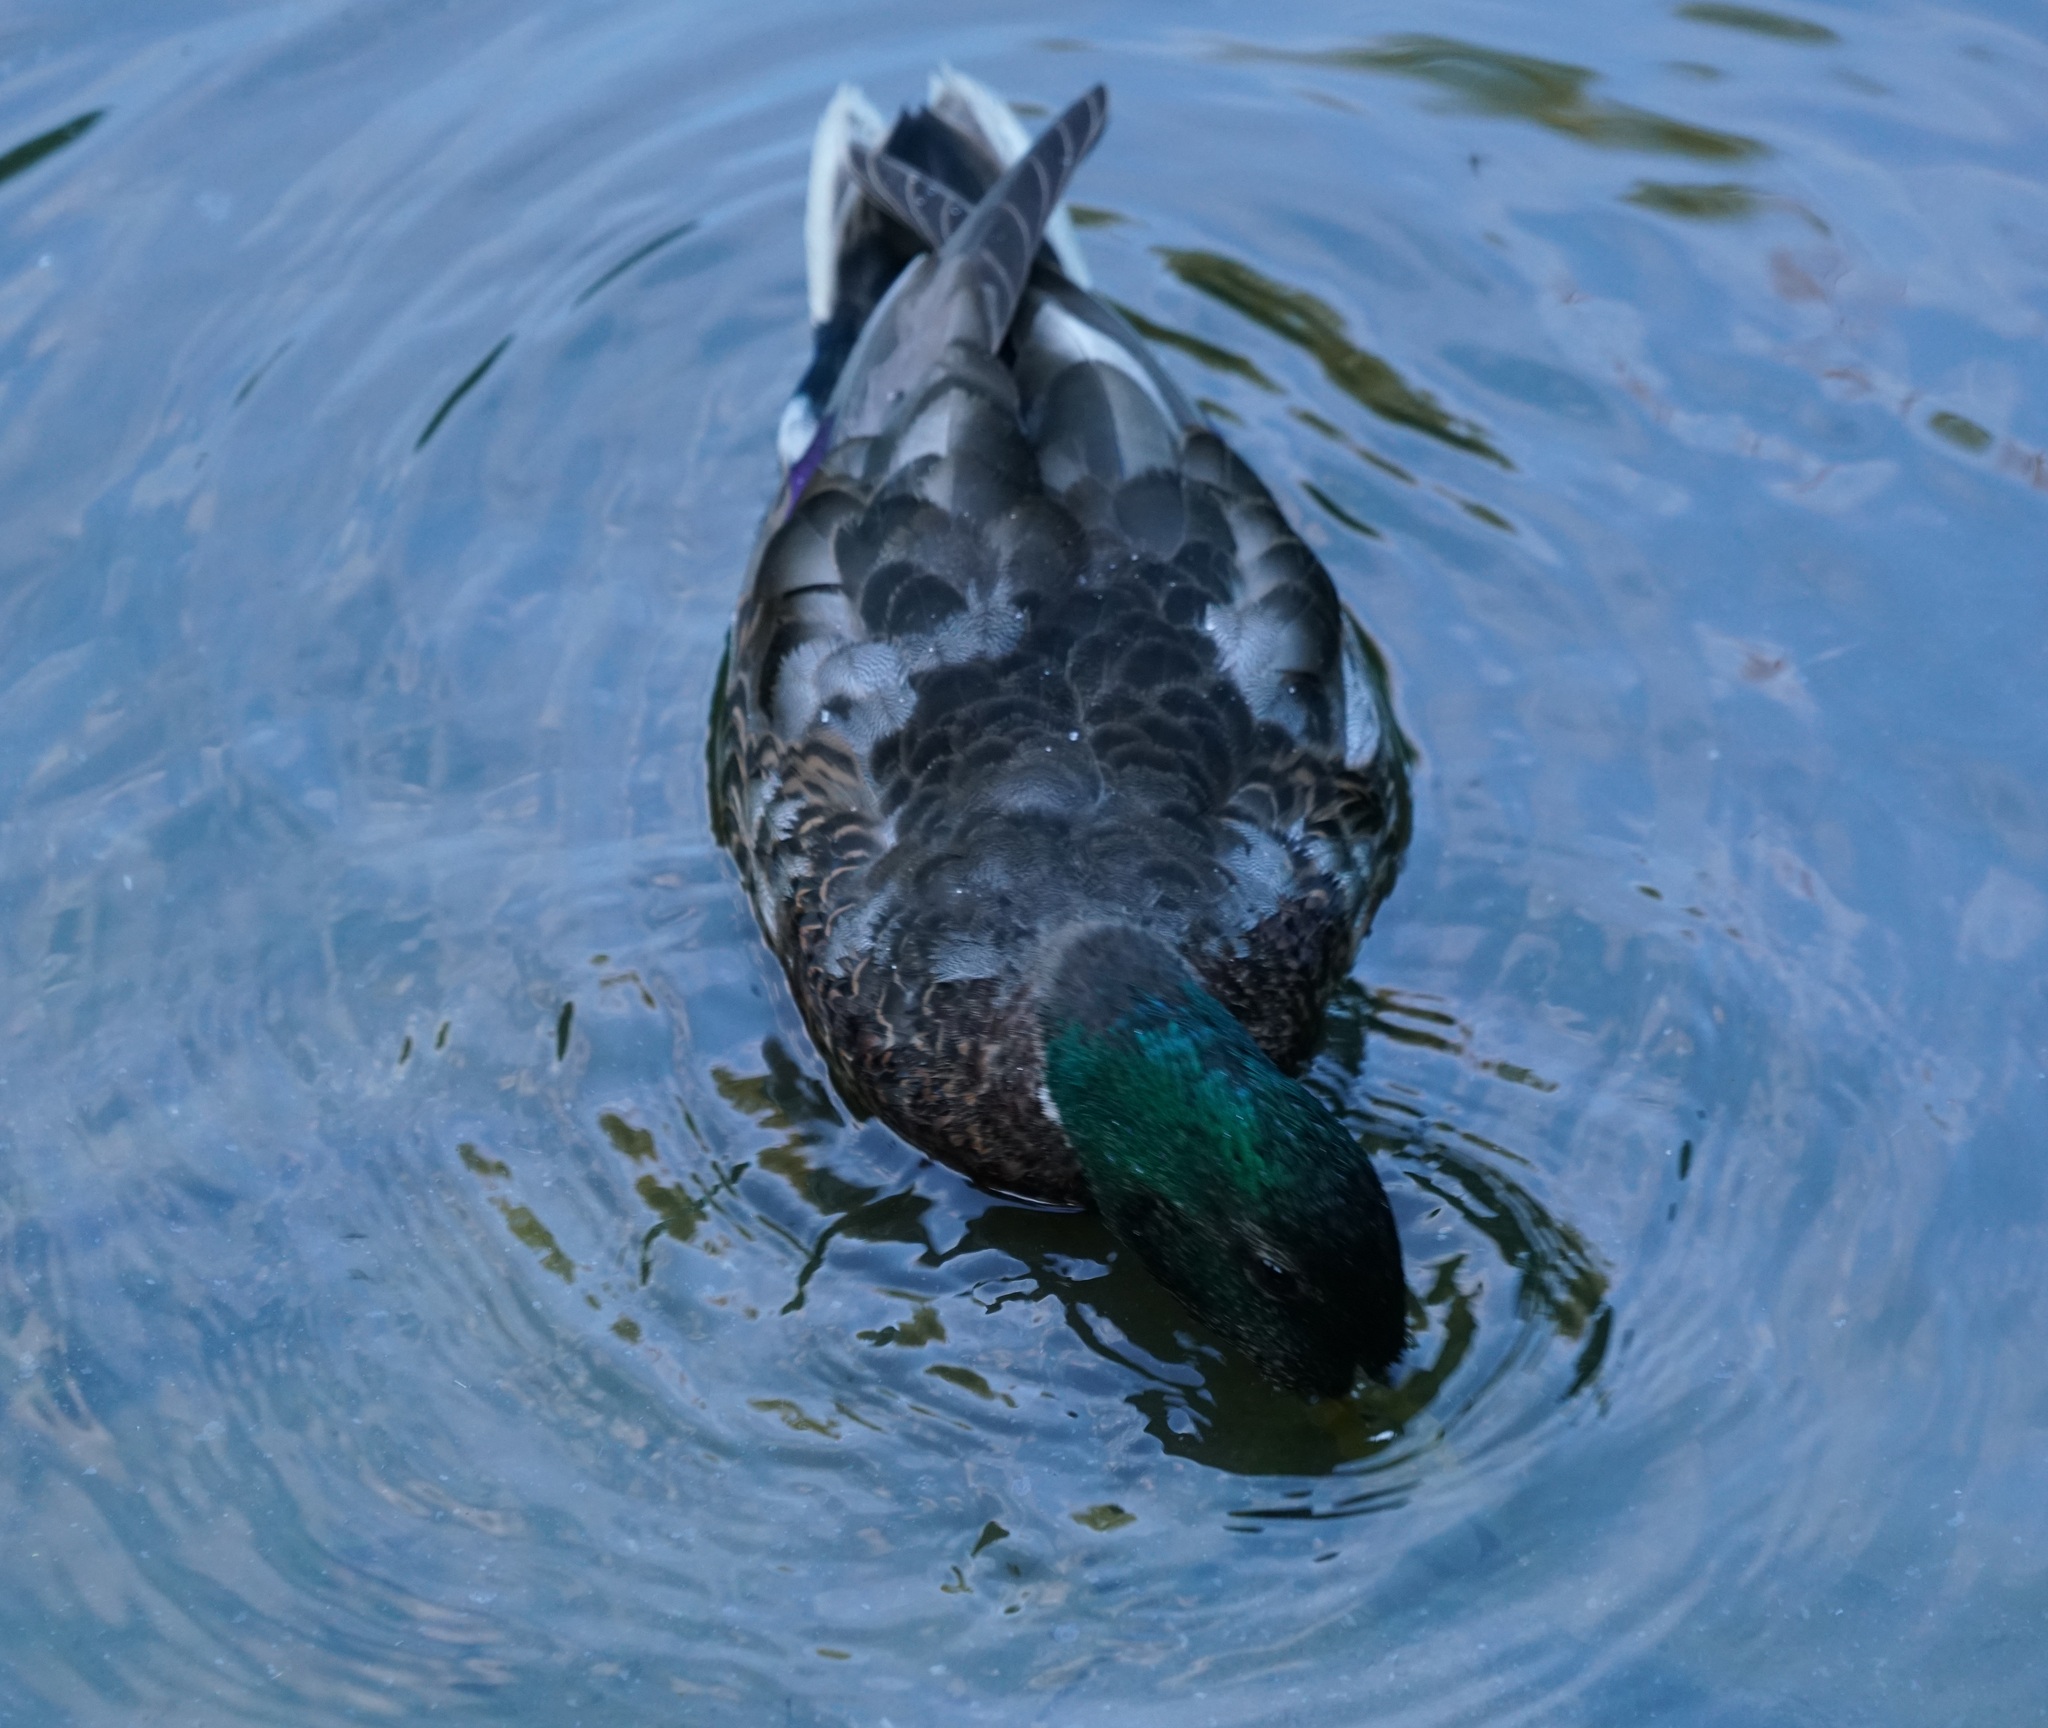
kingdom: Animalia
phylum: Chordata
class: Aves
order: Anseriformes
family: Anatidae
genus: Anas
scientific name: Anas platyrhynchos
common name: Mallard
